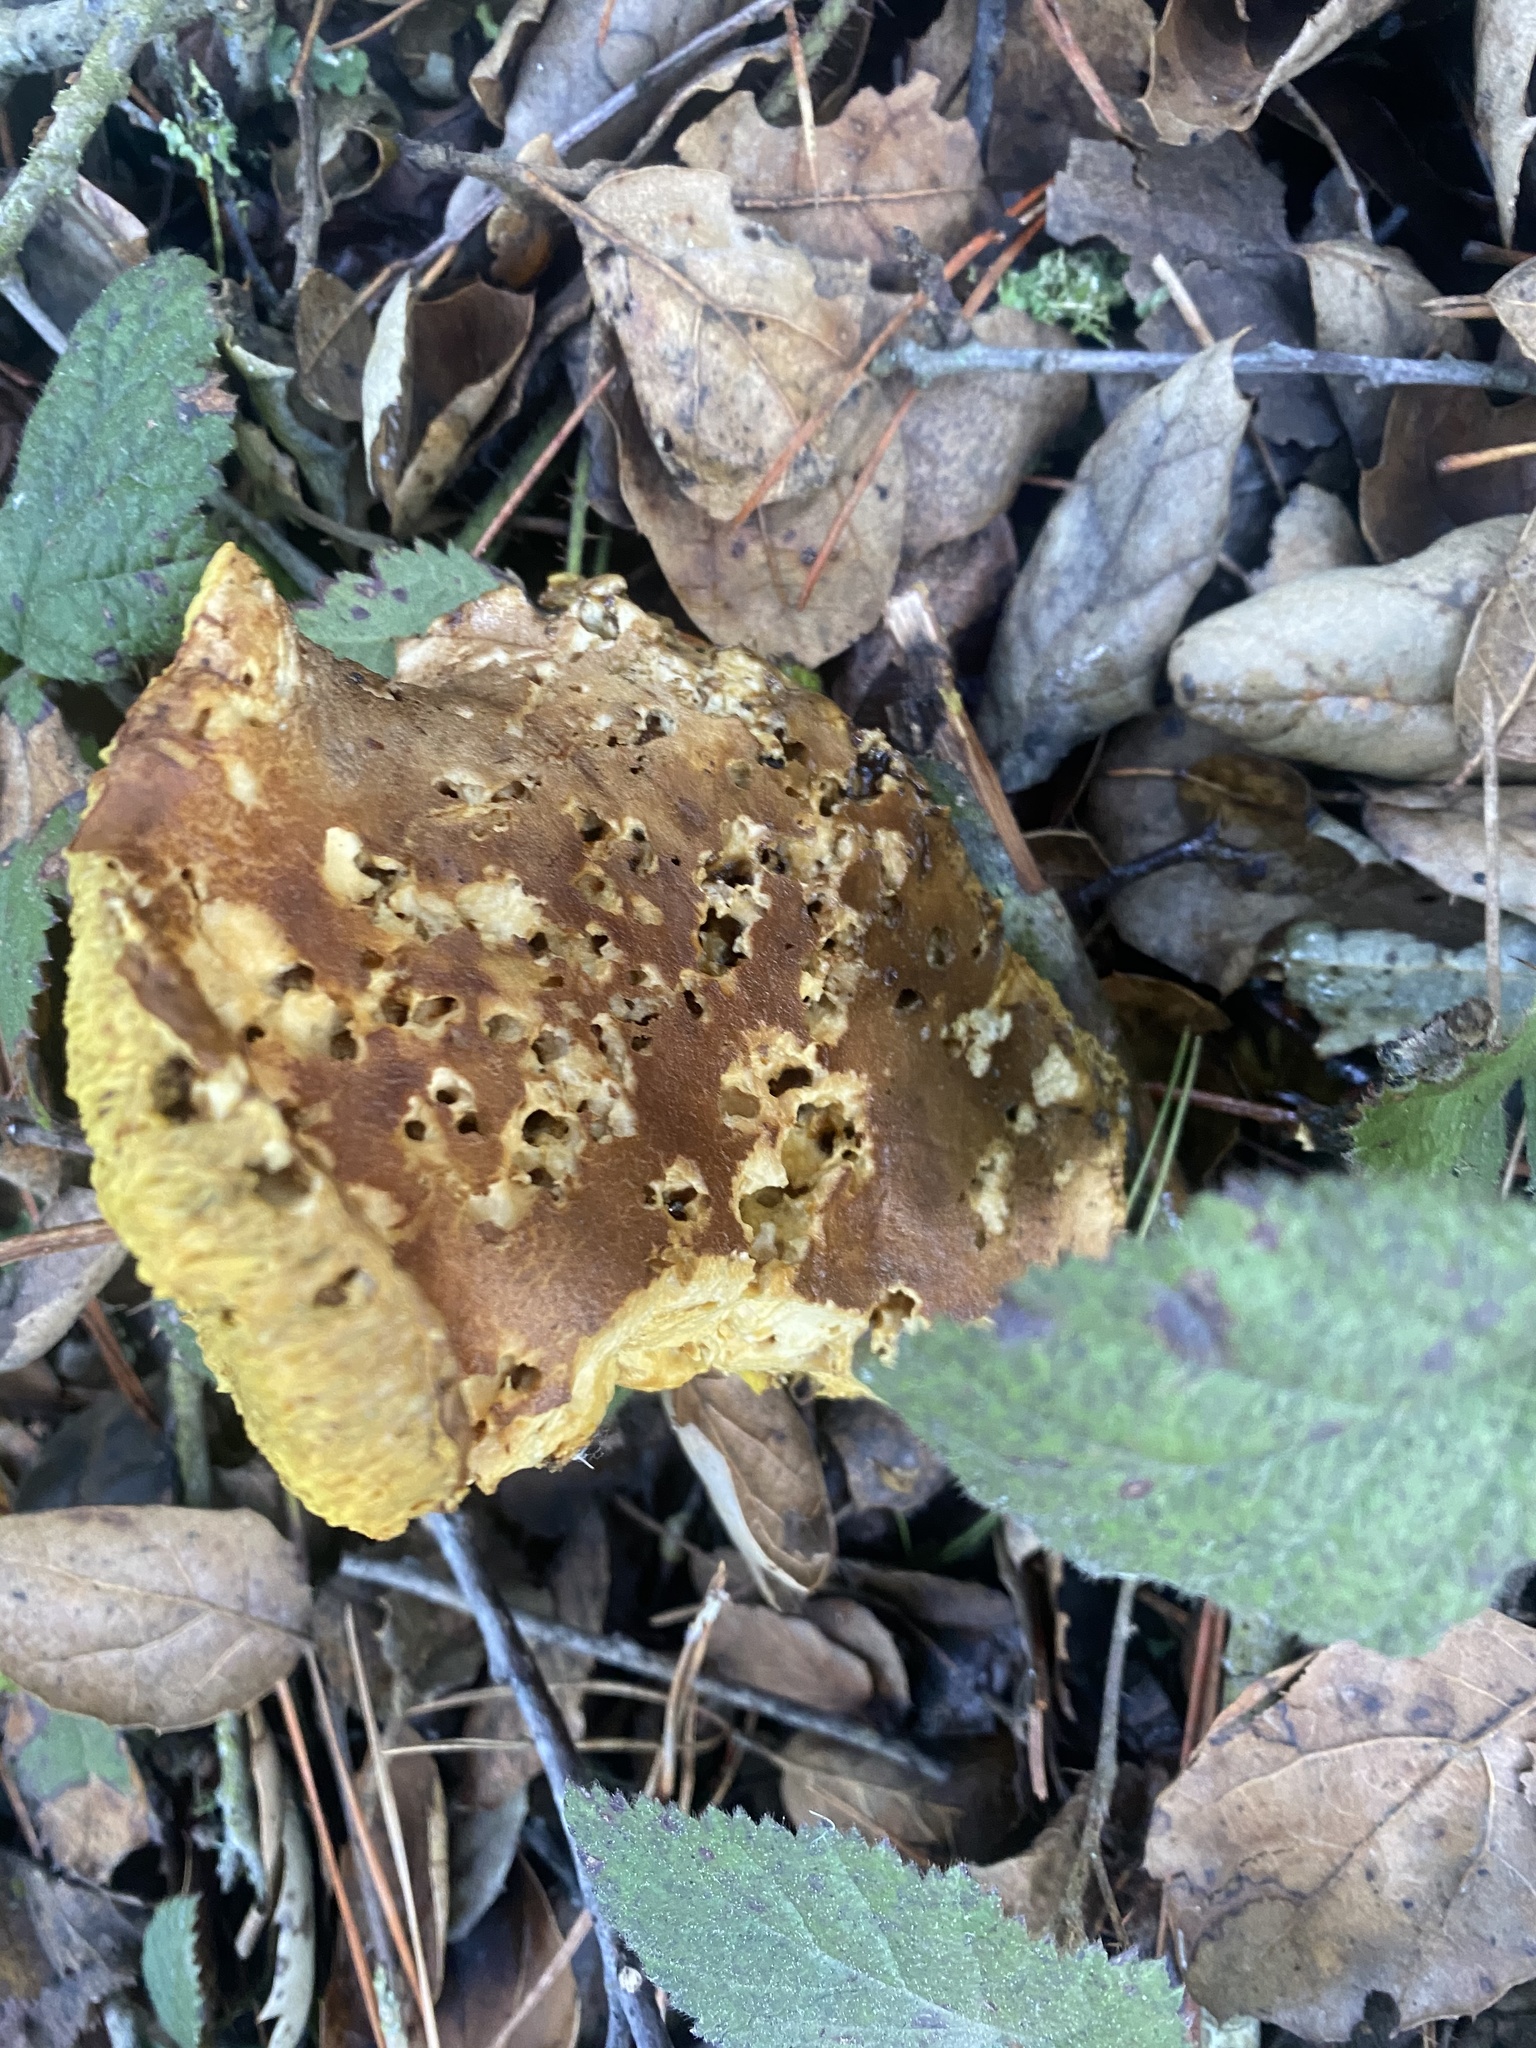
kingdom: Fungi
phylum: Basidiomycota
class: Agaricomycetes
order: Boletales
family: Boletaceae
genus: Xerocomus
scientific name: Xerocomus subtomentosus
